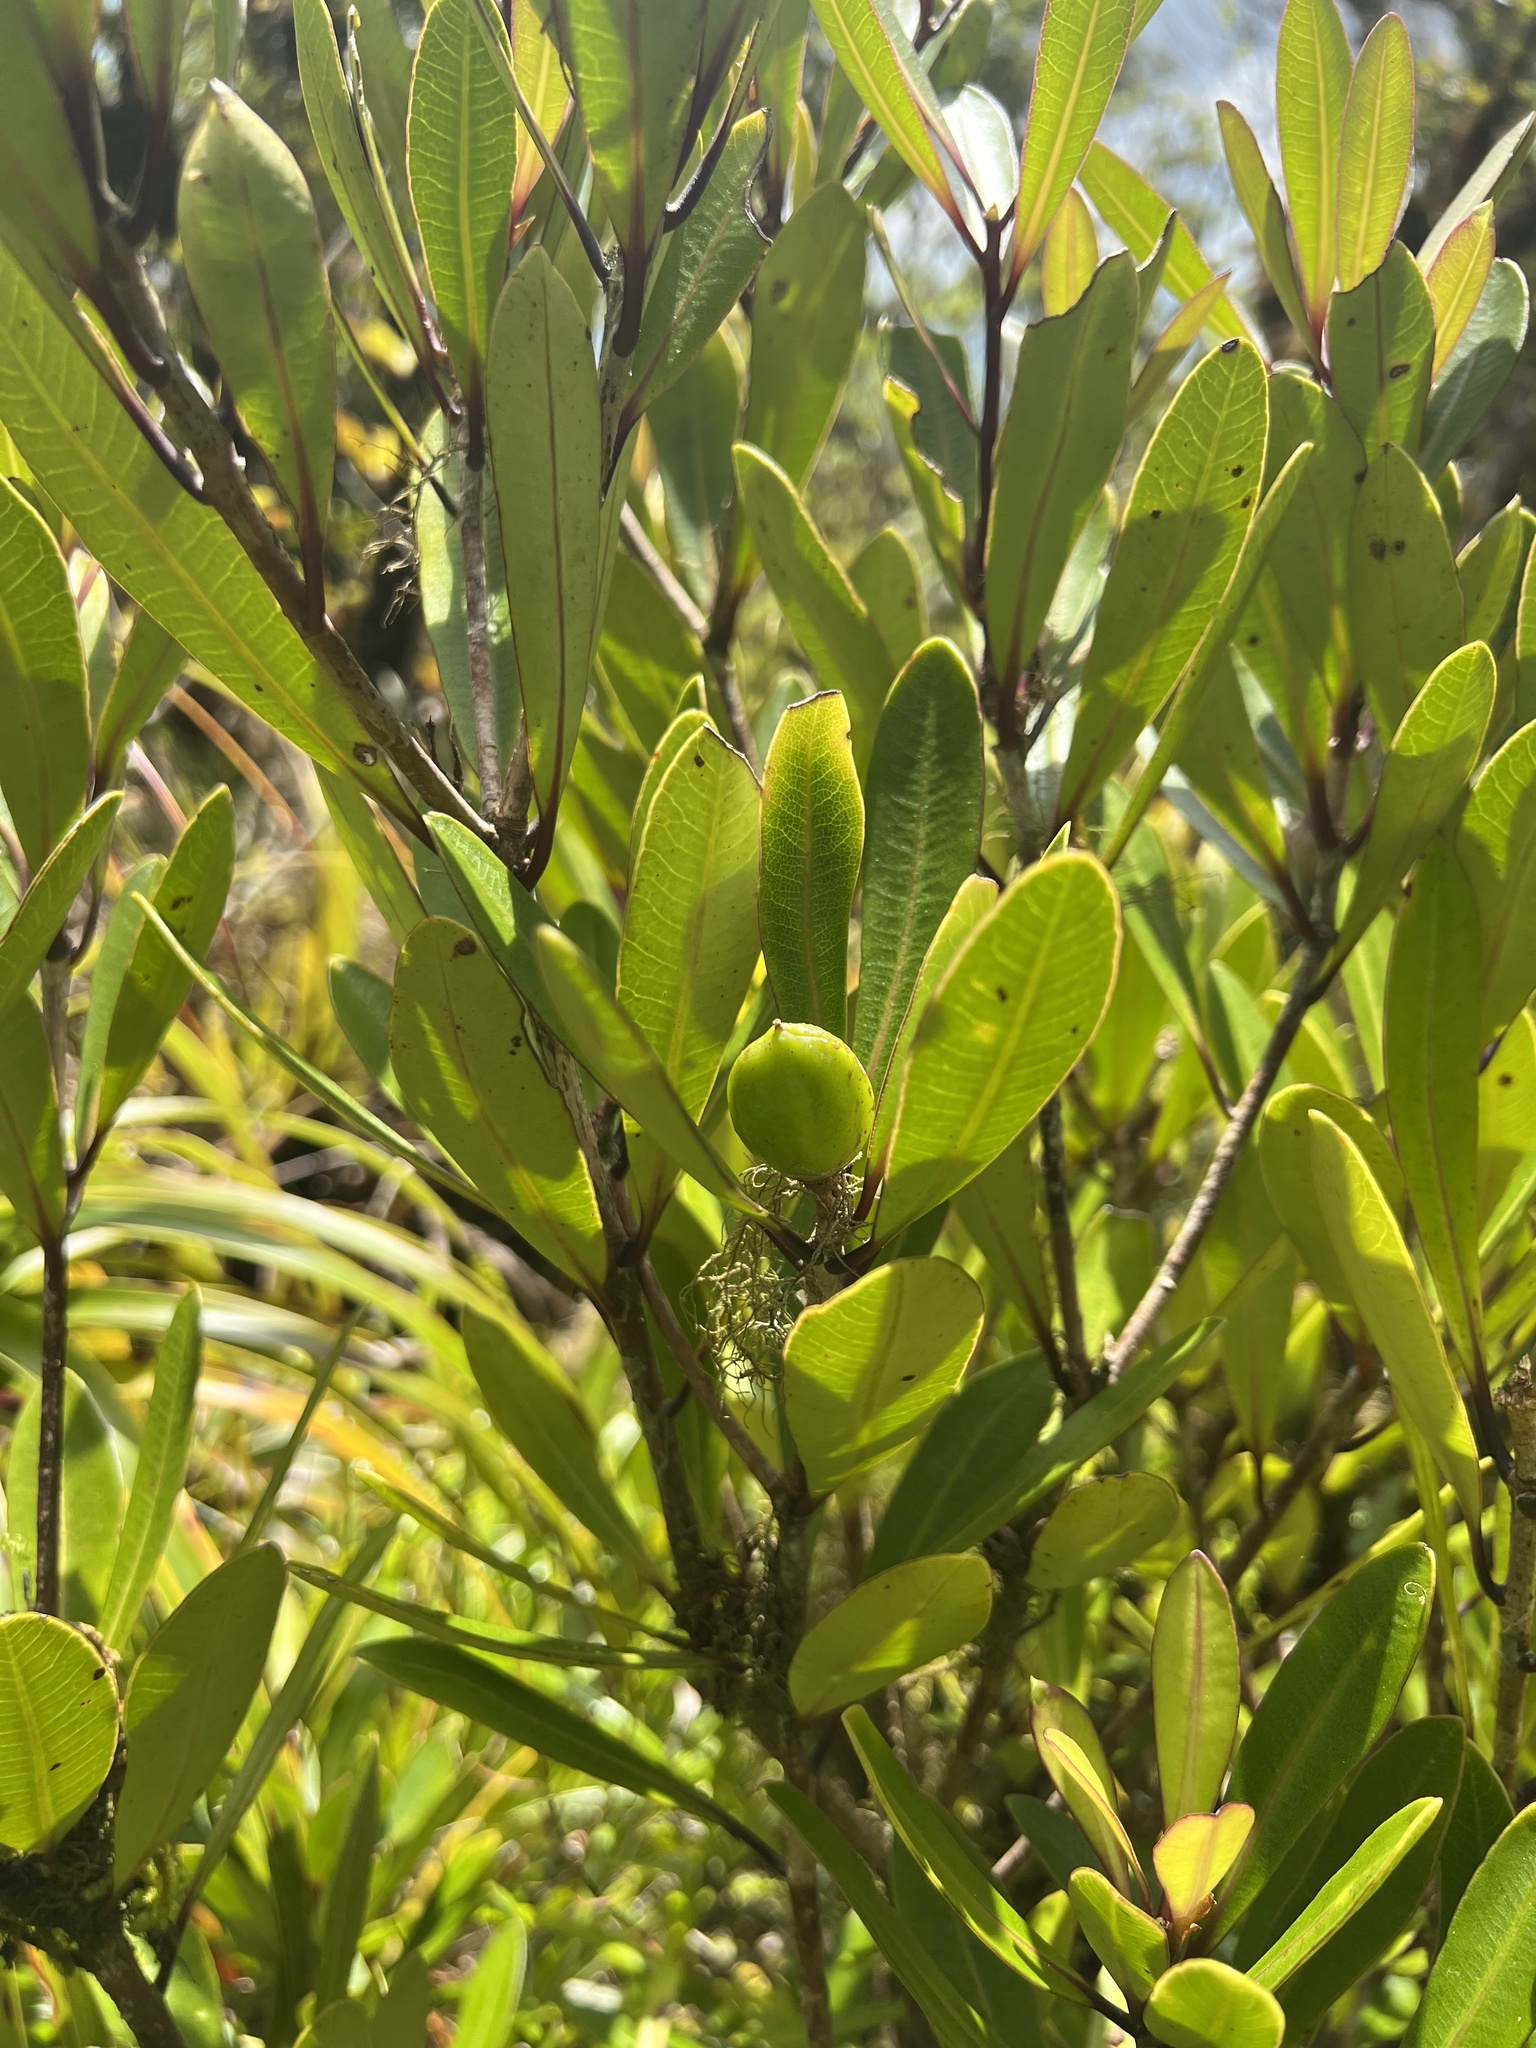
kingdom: Plantae
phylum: Tracheophyta
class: Magnoliopsida
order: Apiales
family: Pittosporaceae
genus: Pittosporum
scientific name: Pittosporum kirkii
